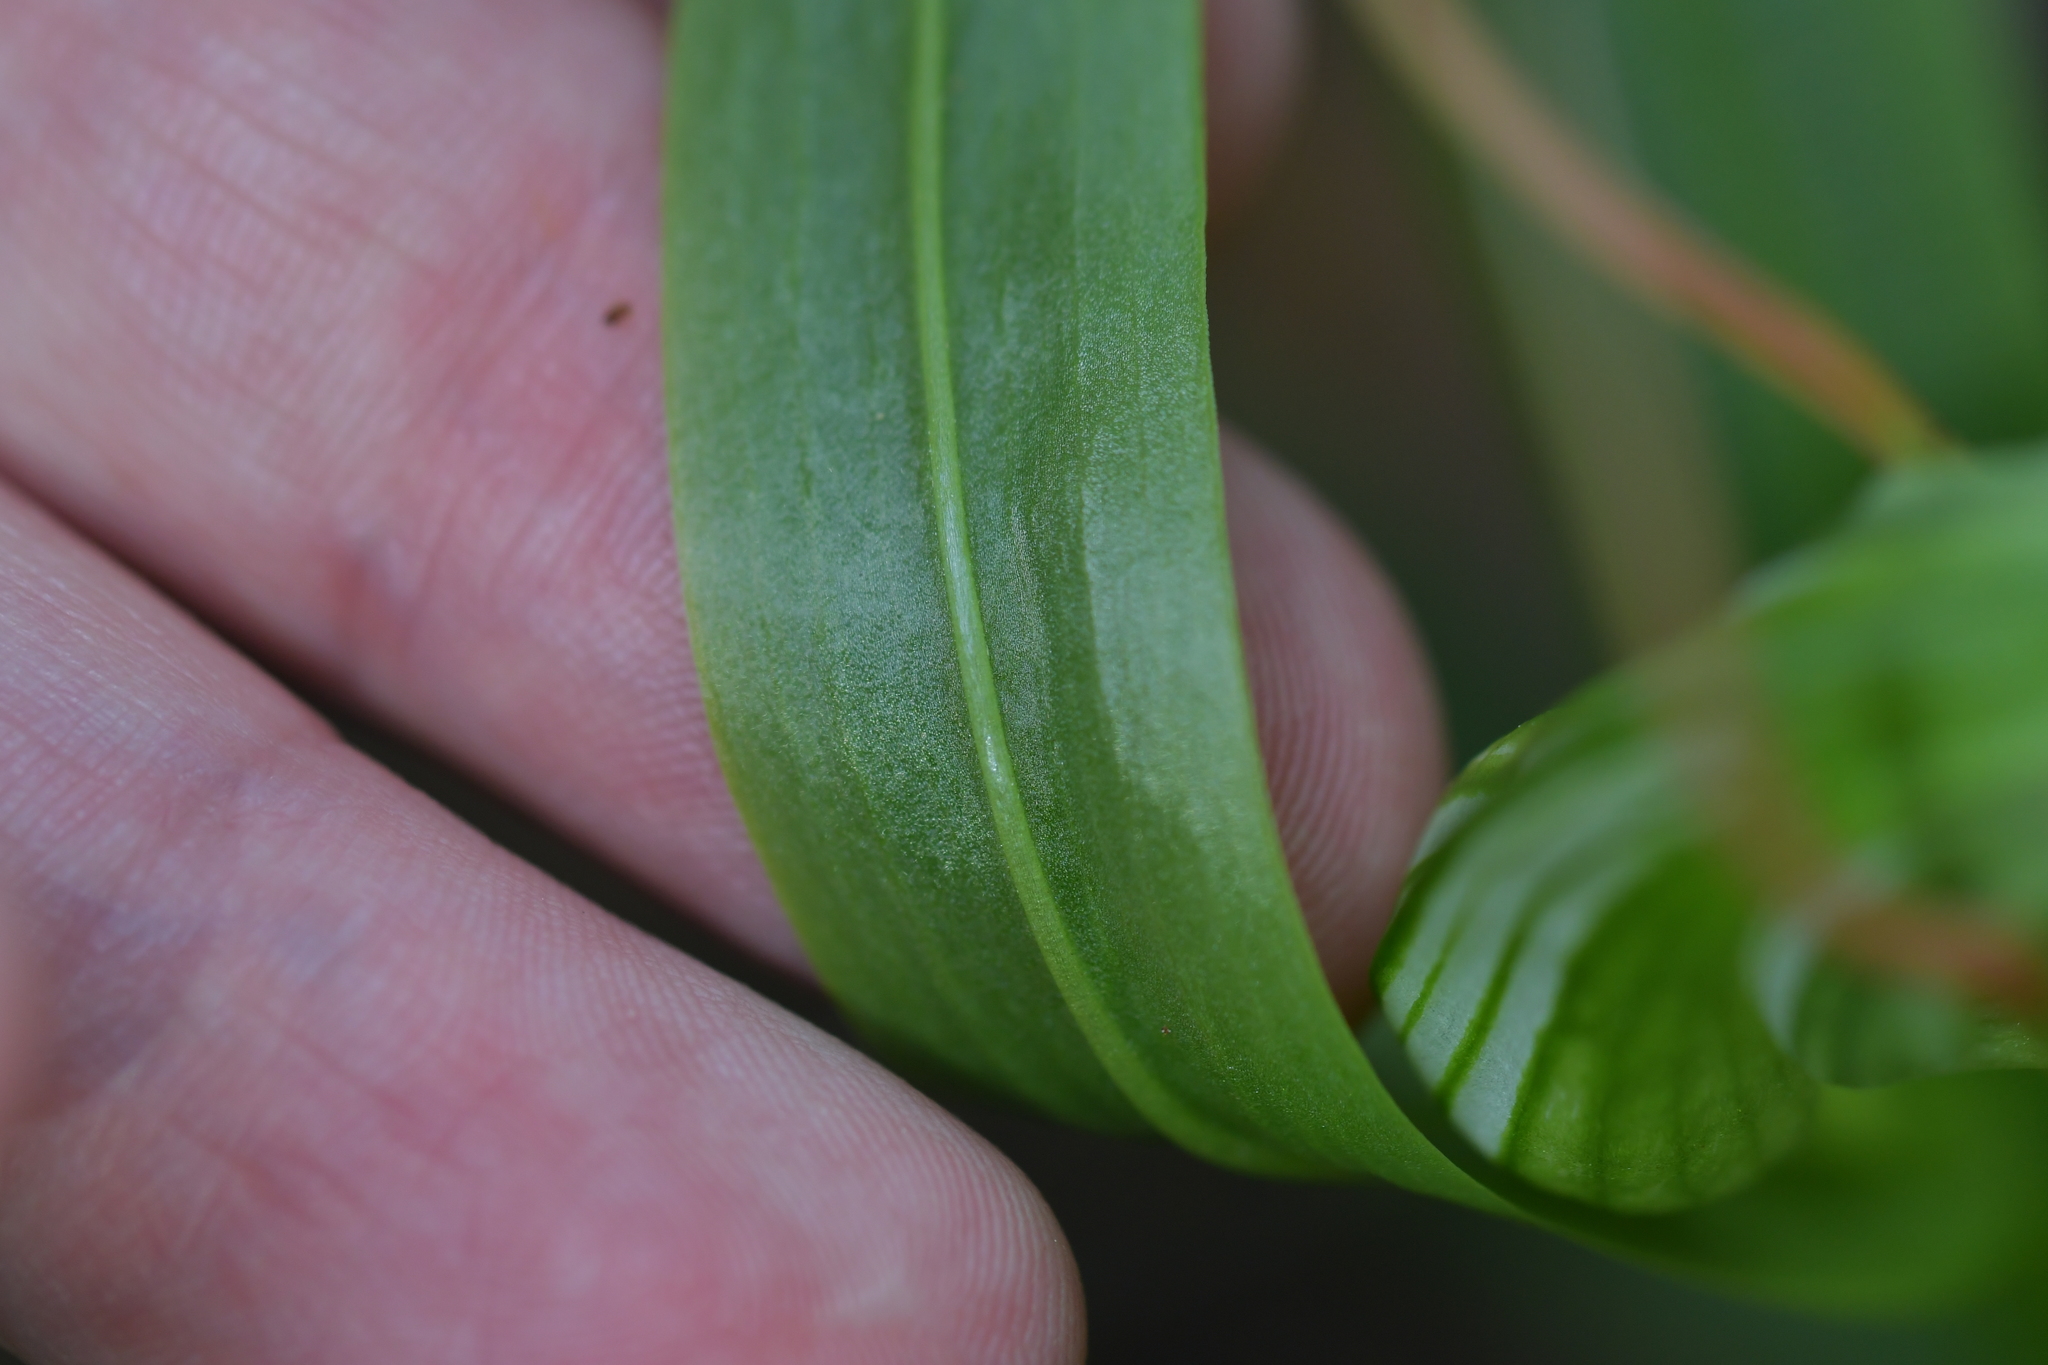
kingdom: Plantae
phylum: Tracheophyta
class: Liliopsida
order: Asparagales
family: Orchidaceae
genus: Pterostylis
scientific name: Pterostylis banksii
